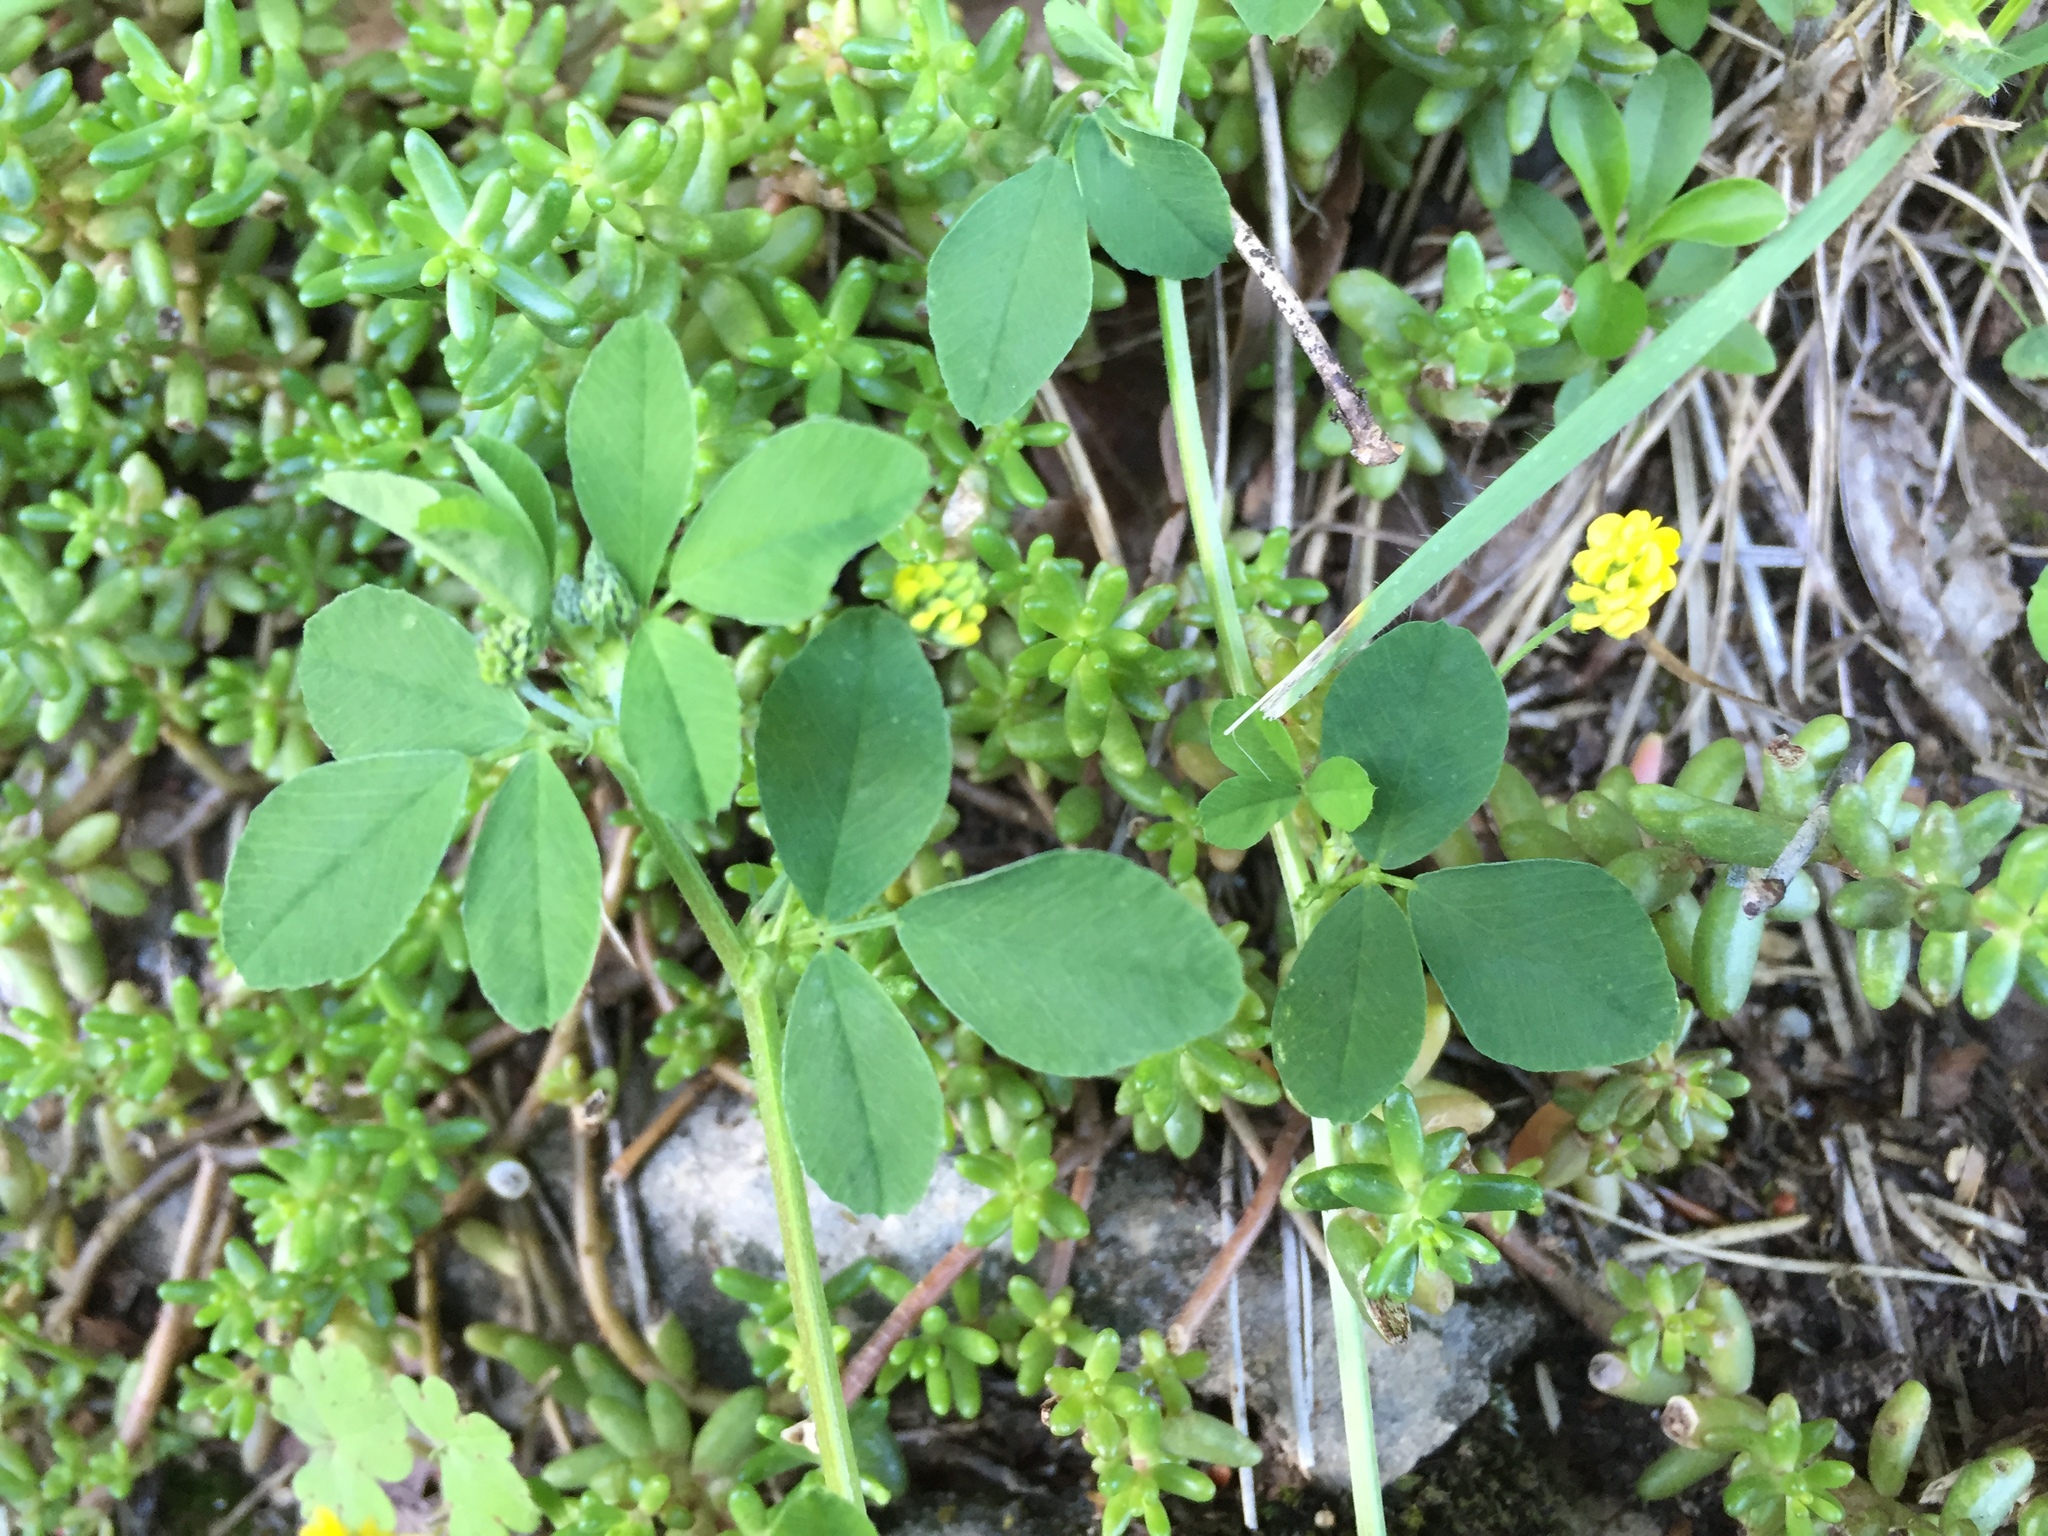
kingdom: Plantae
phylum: Tracheophyta
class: Magnoliopsida
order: Fabales
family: Fabaceae
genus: Medicago
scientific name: Medicago lupulina
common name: Black medick
